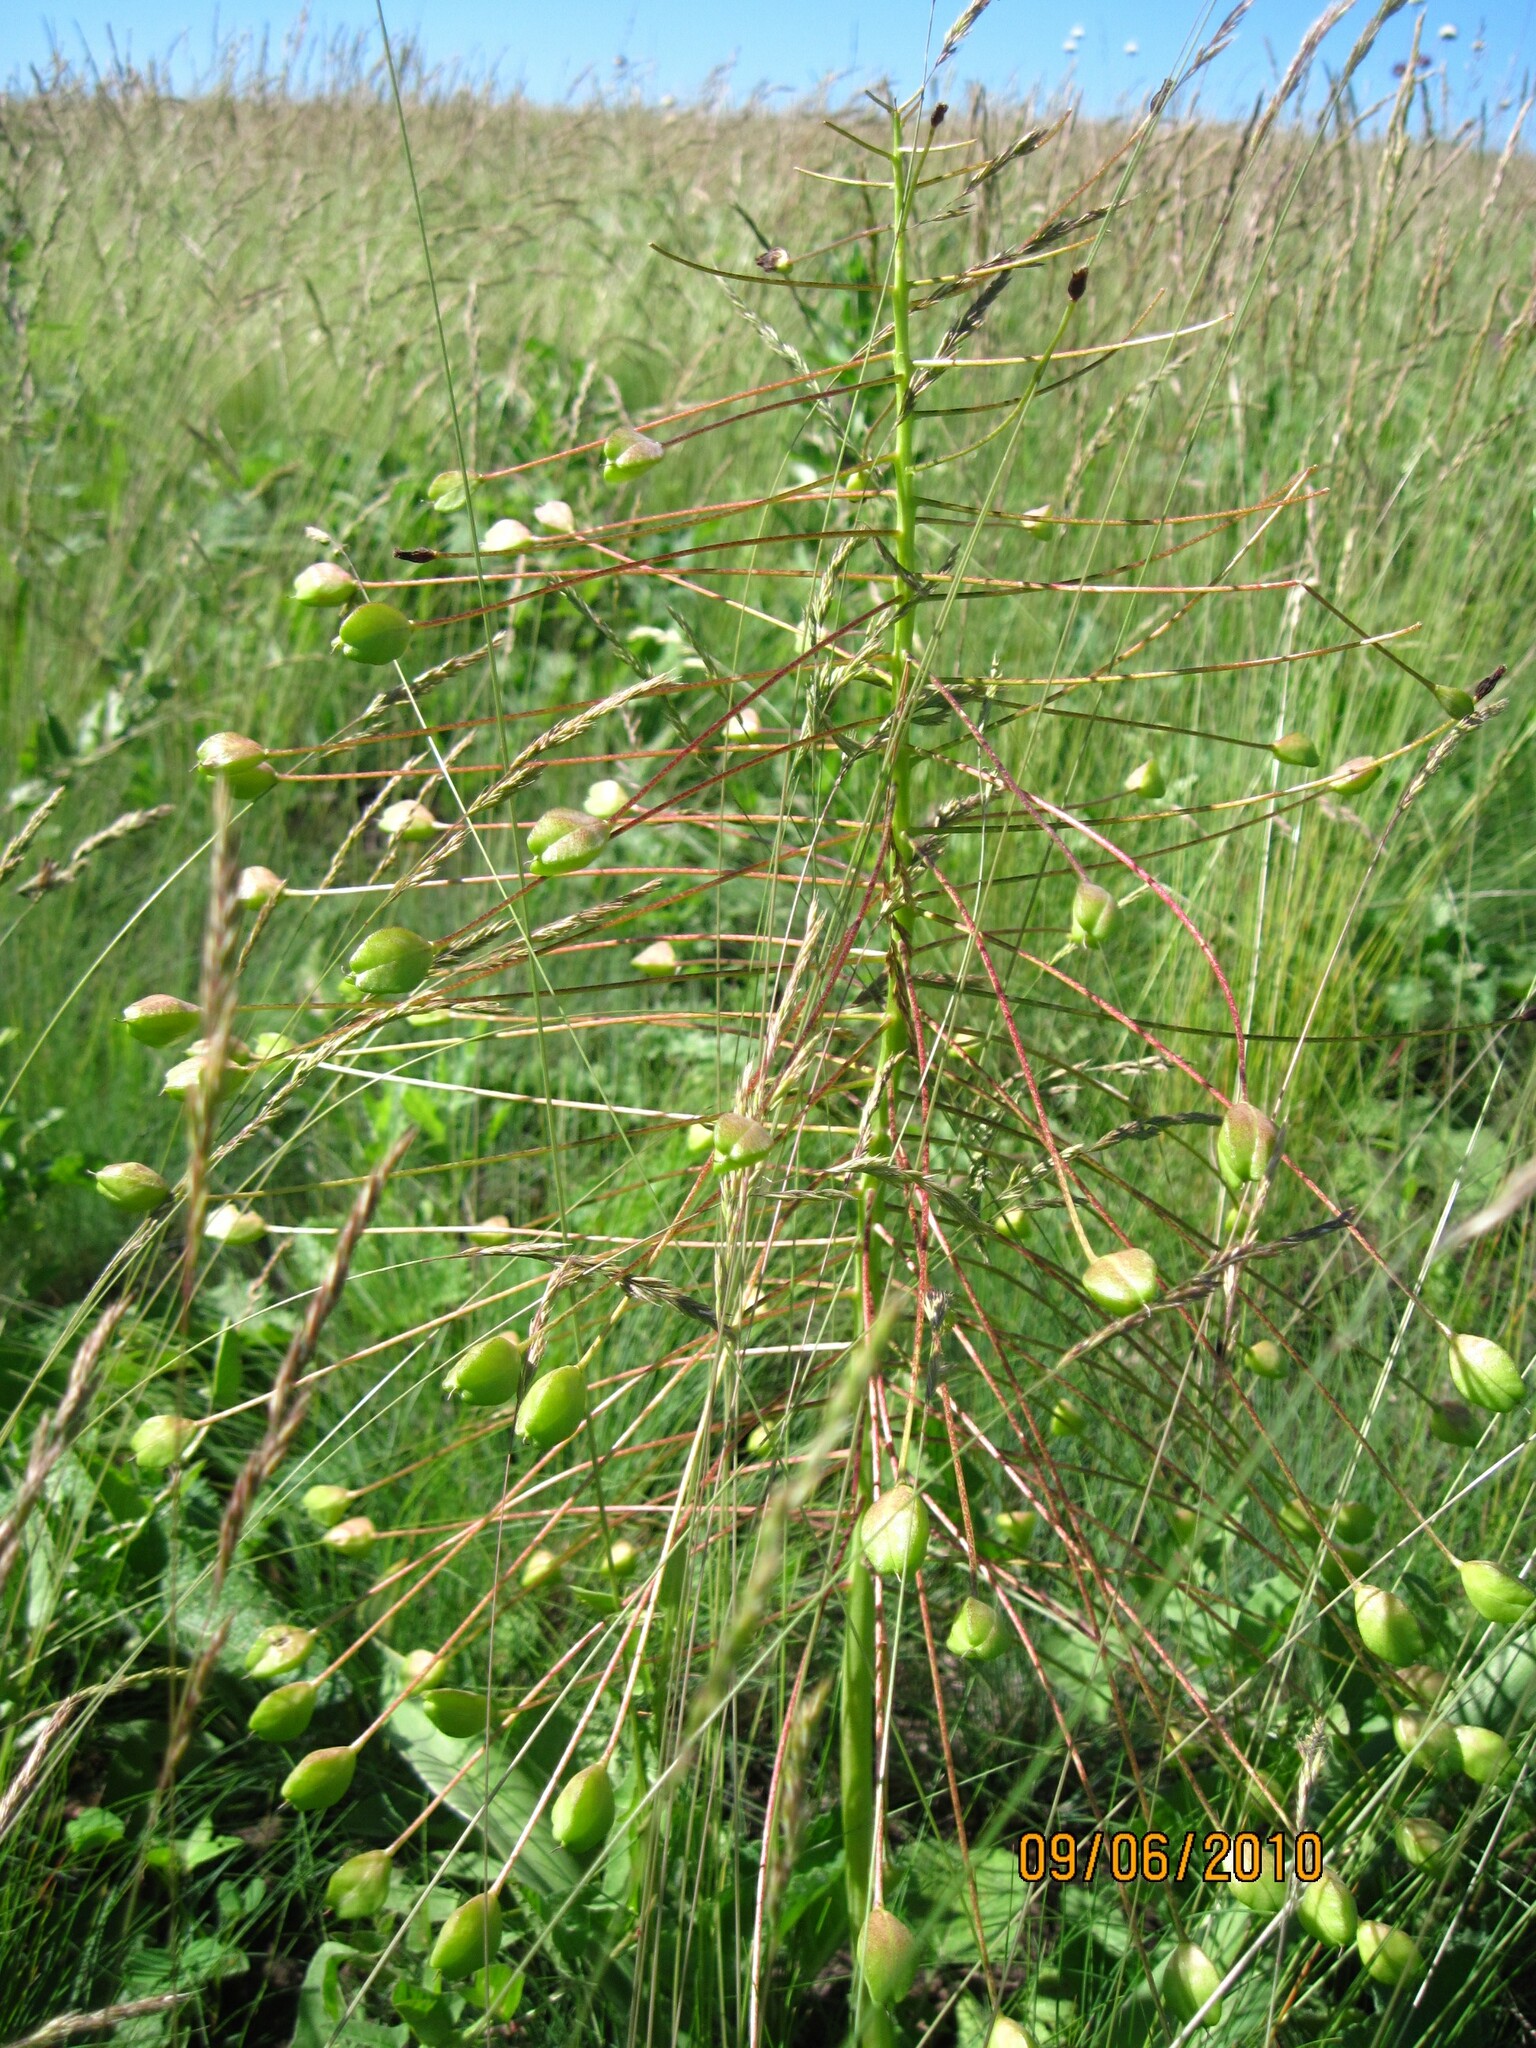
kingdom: Plantae
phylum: Tracheophyta
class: Liliopsida
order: Asparagales
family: Asparagaceae
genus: Bellevalia
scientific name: Bellevalia speciosa
